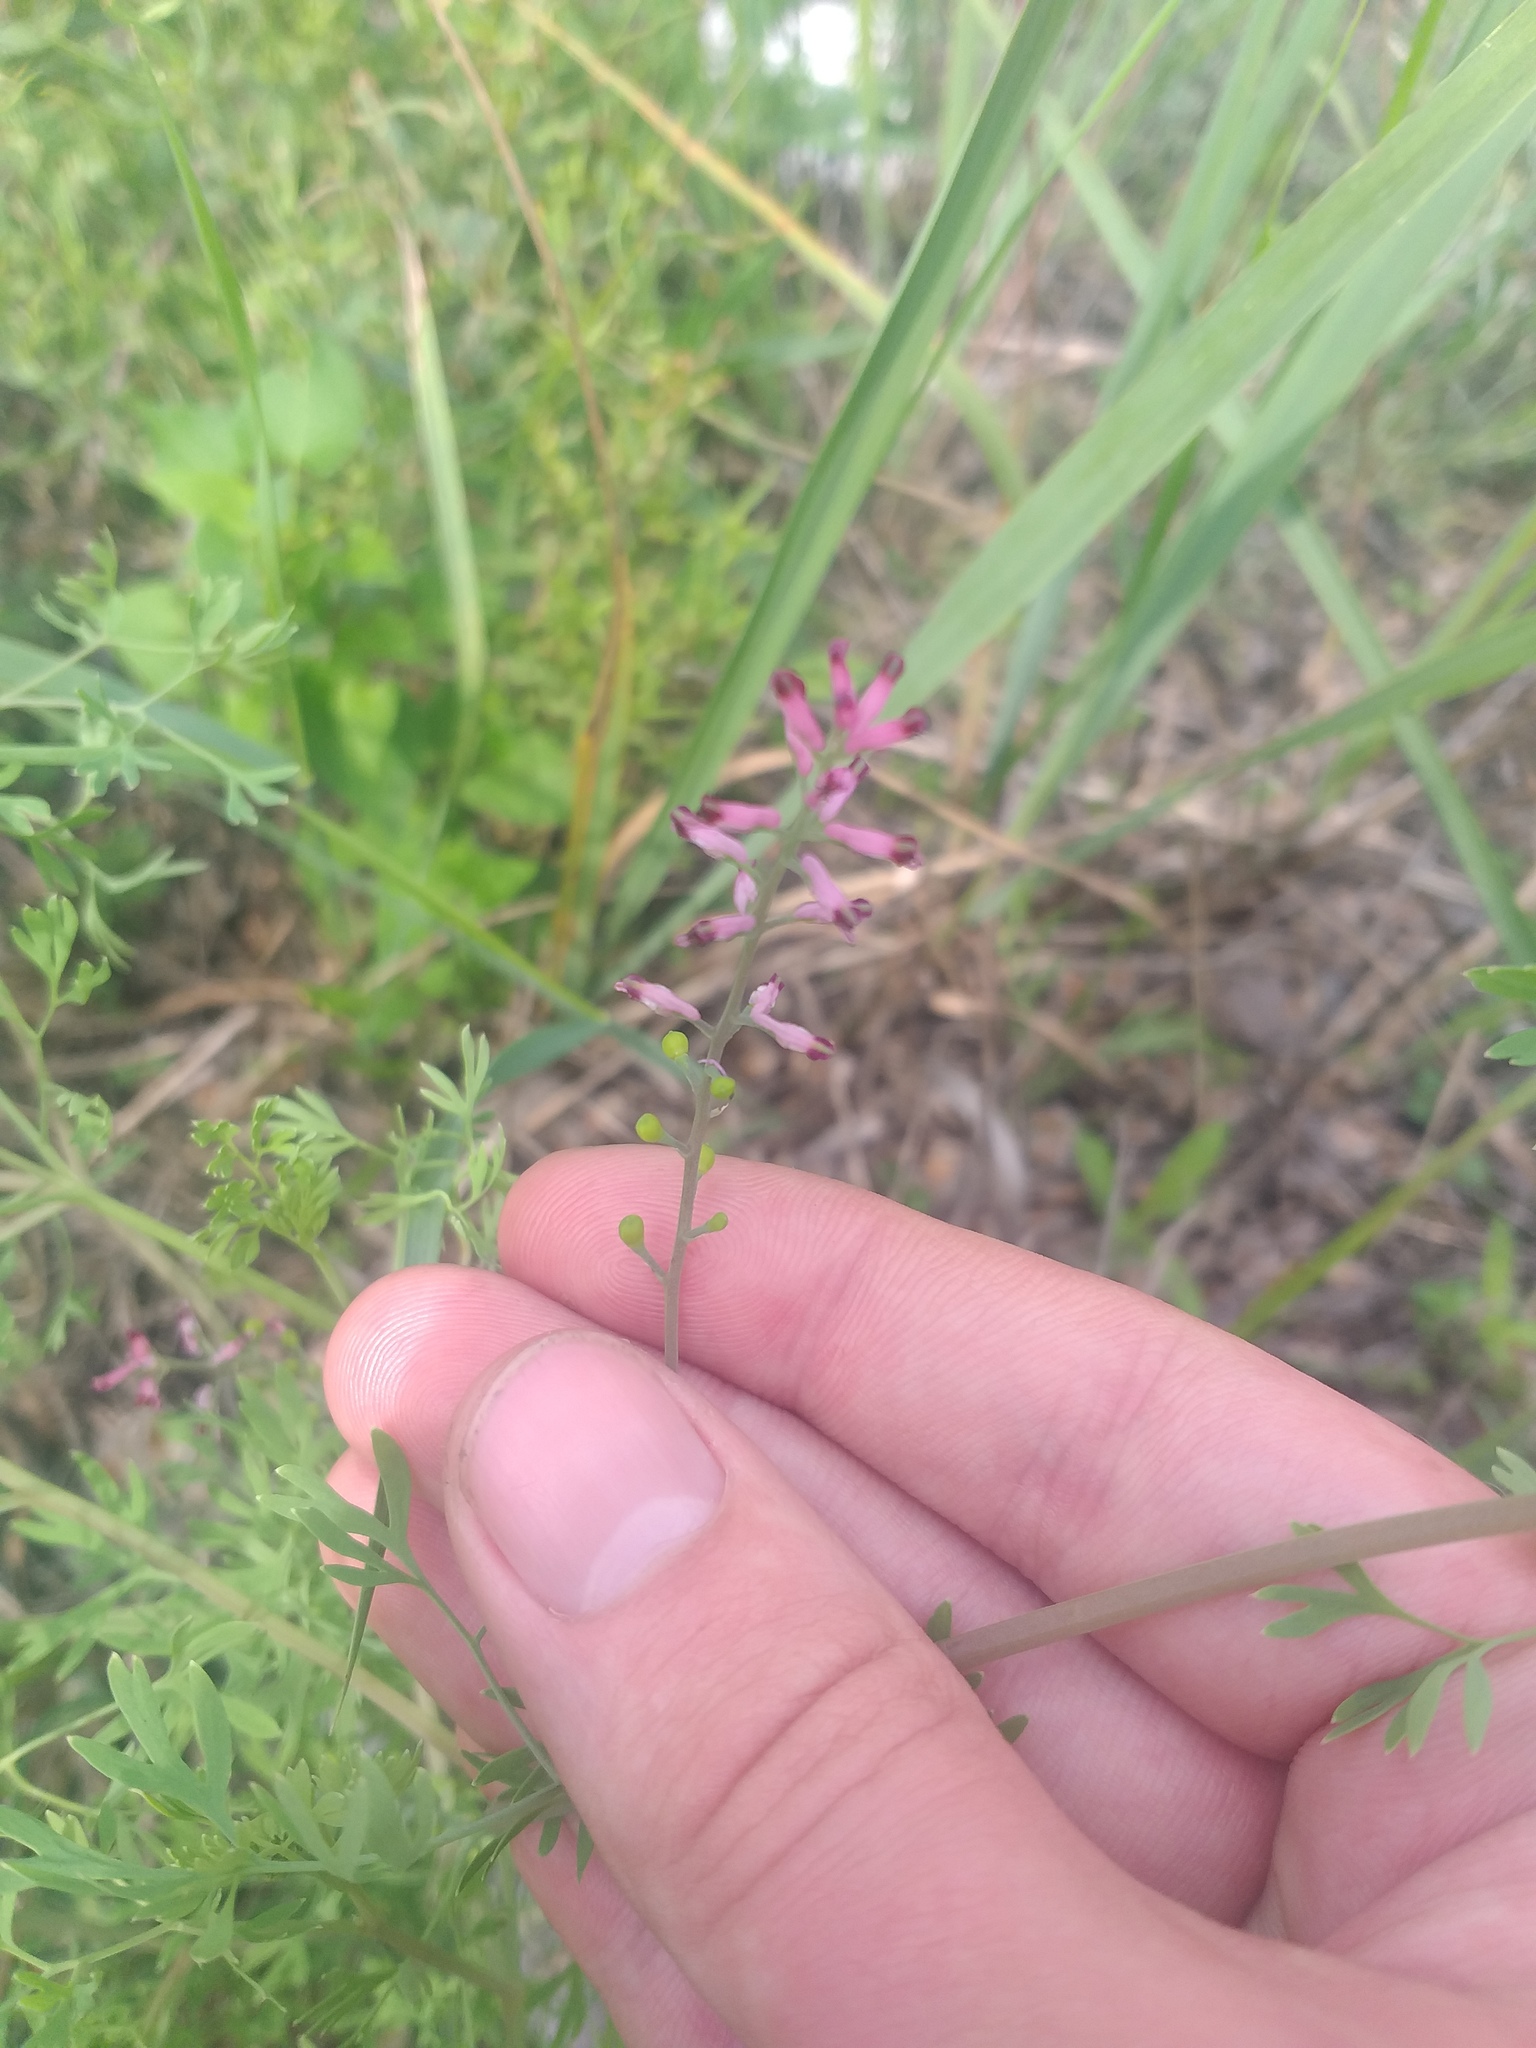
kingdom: Plantae
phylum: Tracheophyta
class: Magnoliopsida
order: Ranunculales
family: Papaveraceae
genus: Fumaria
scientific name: Fumaria schleicheri
